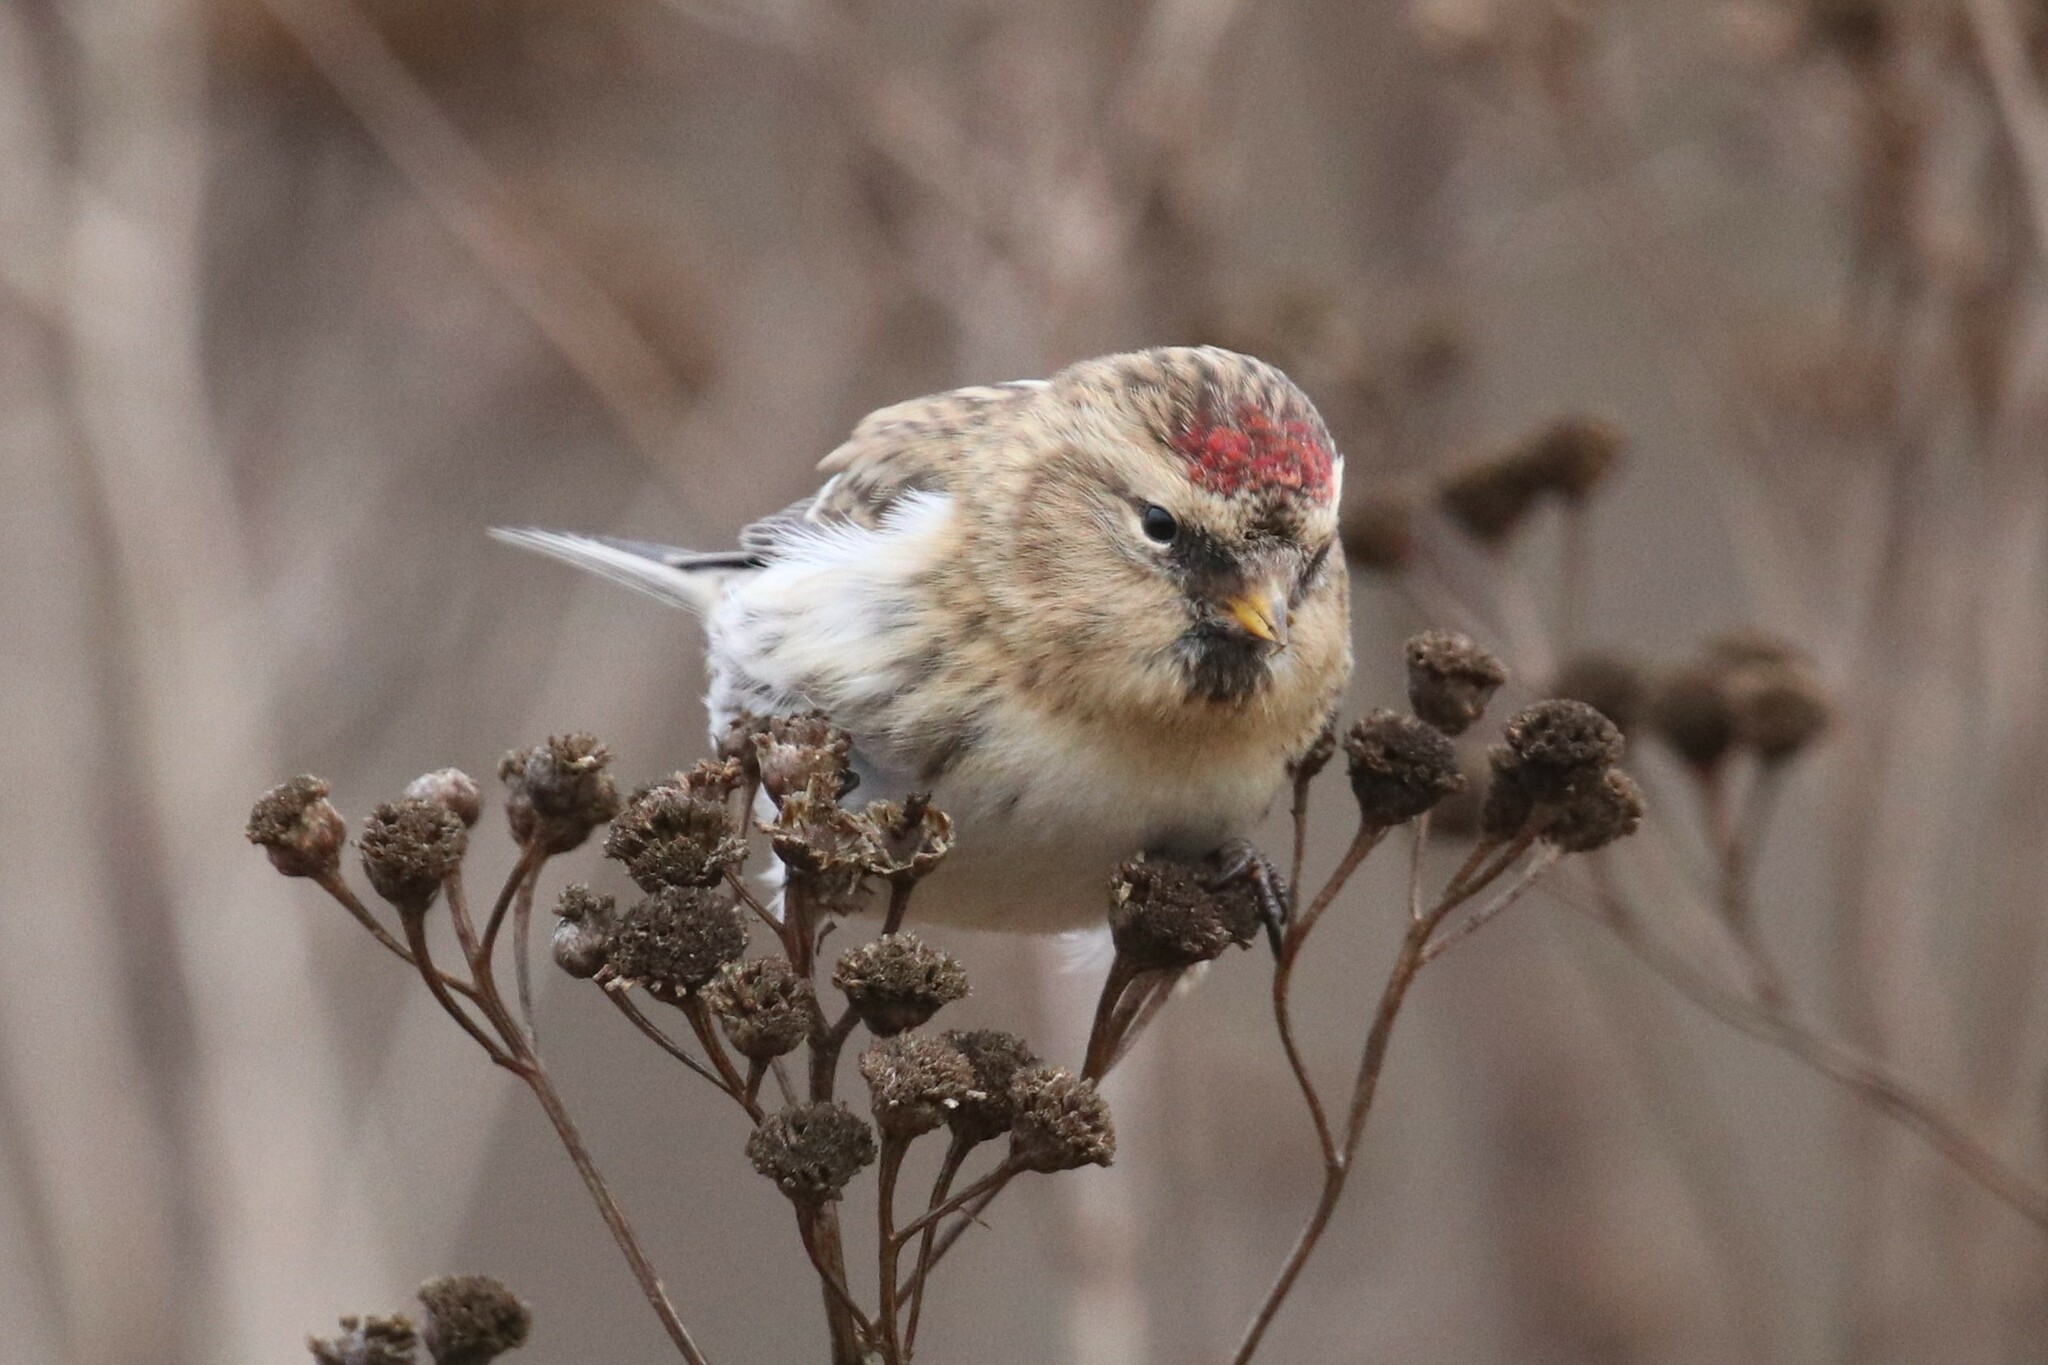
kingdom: Animalia
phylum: Chordata
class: Aves
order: Passeriformes
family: Fringillidae
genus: Acanthis
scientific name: Acanthis flammea
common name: Common redpoll
